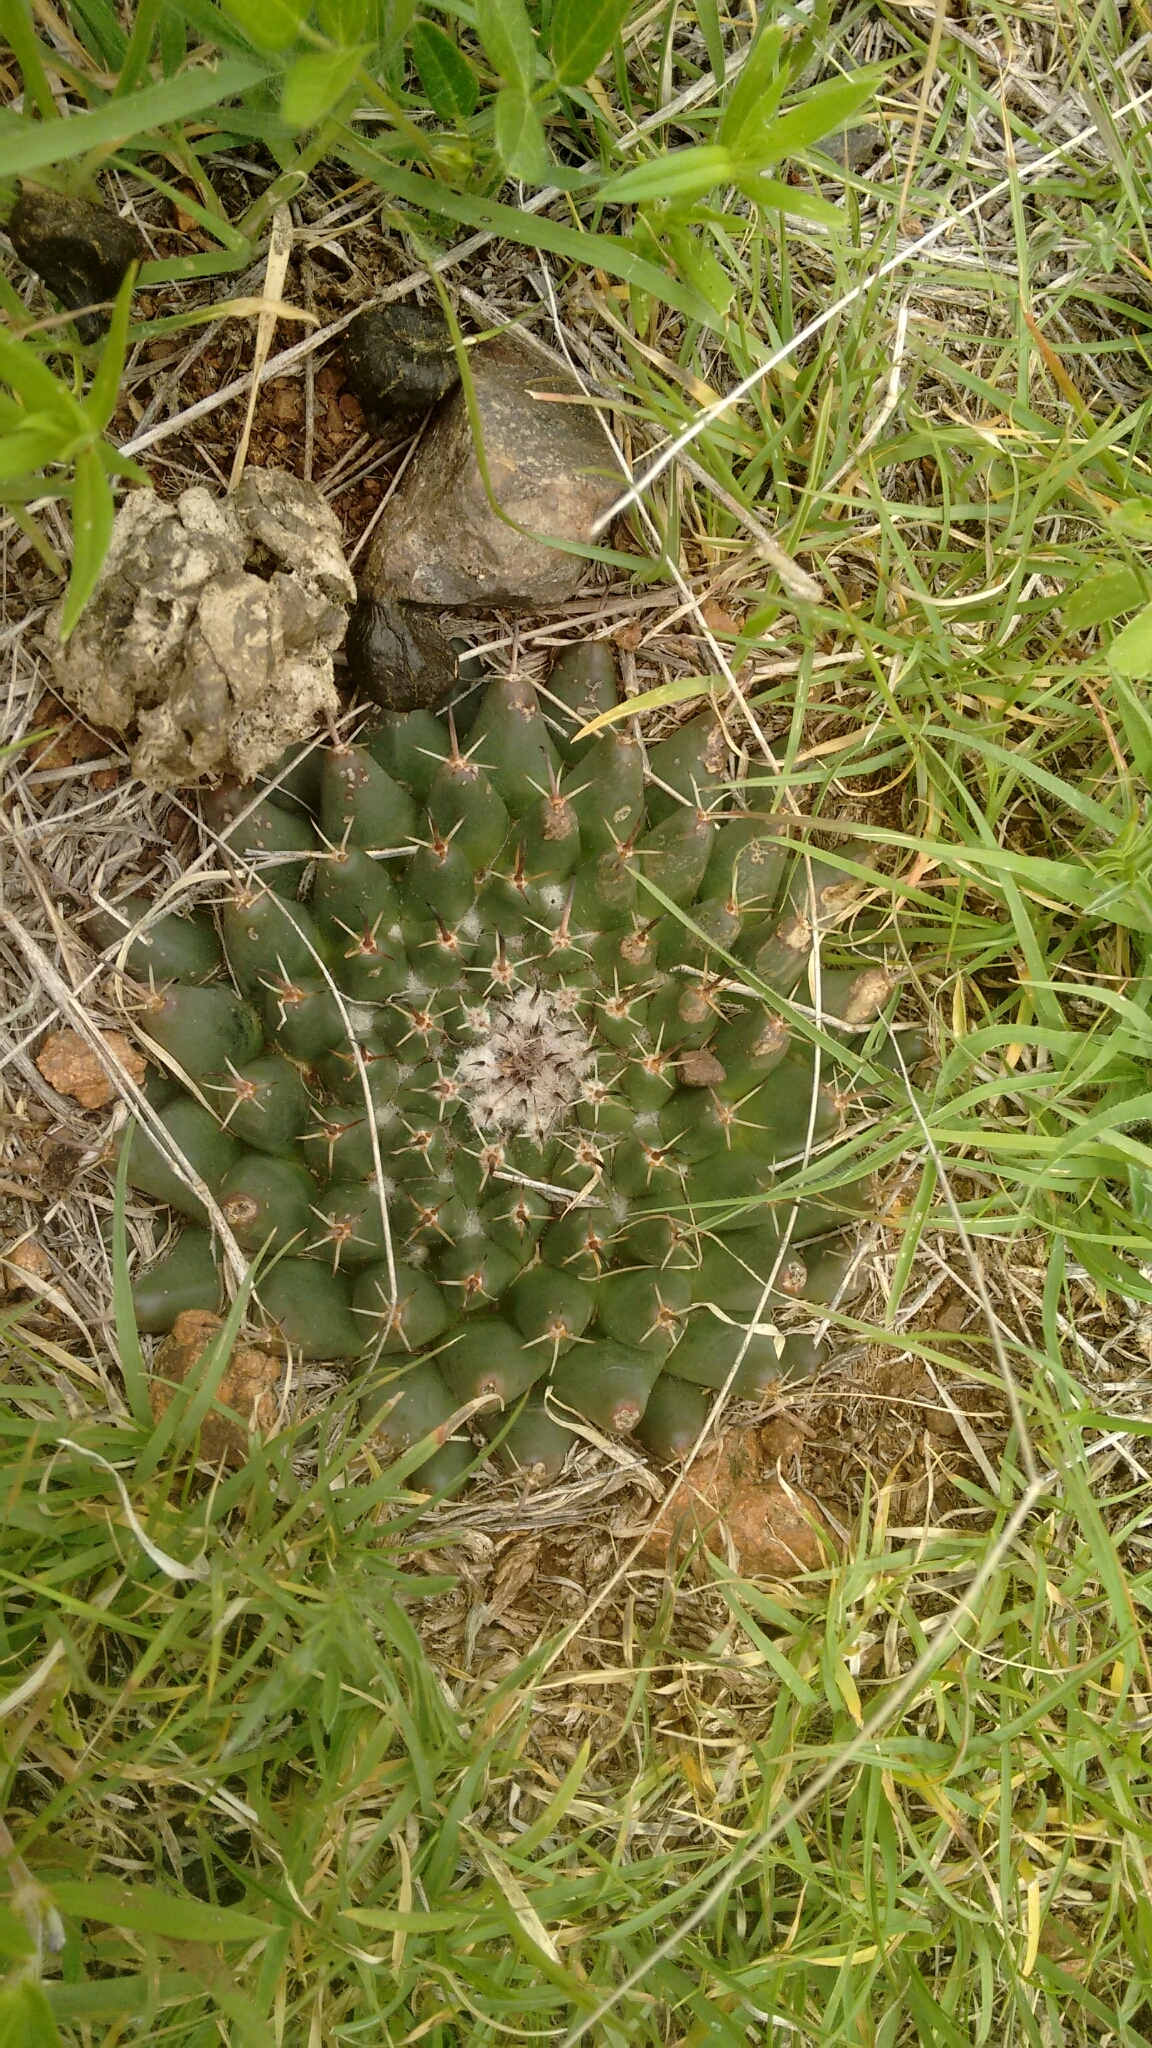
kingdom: Plantae
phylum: Tracheophyta
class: Magnoliopsida
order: Caryophyllales
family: Cactaceae
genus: Mammillaria
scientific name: Mammillaria uncinata
